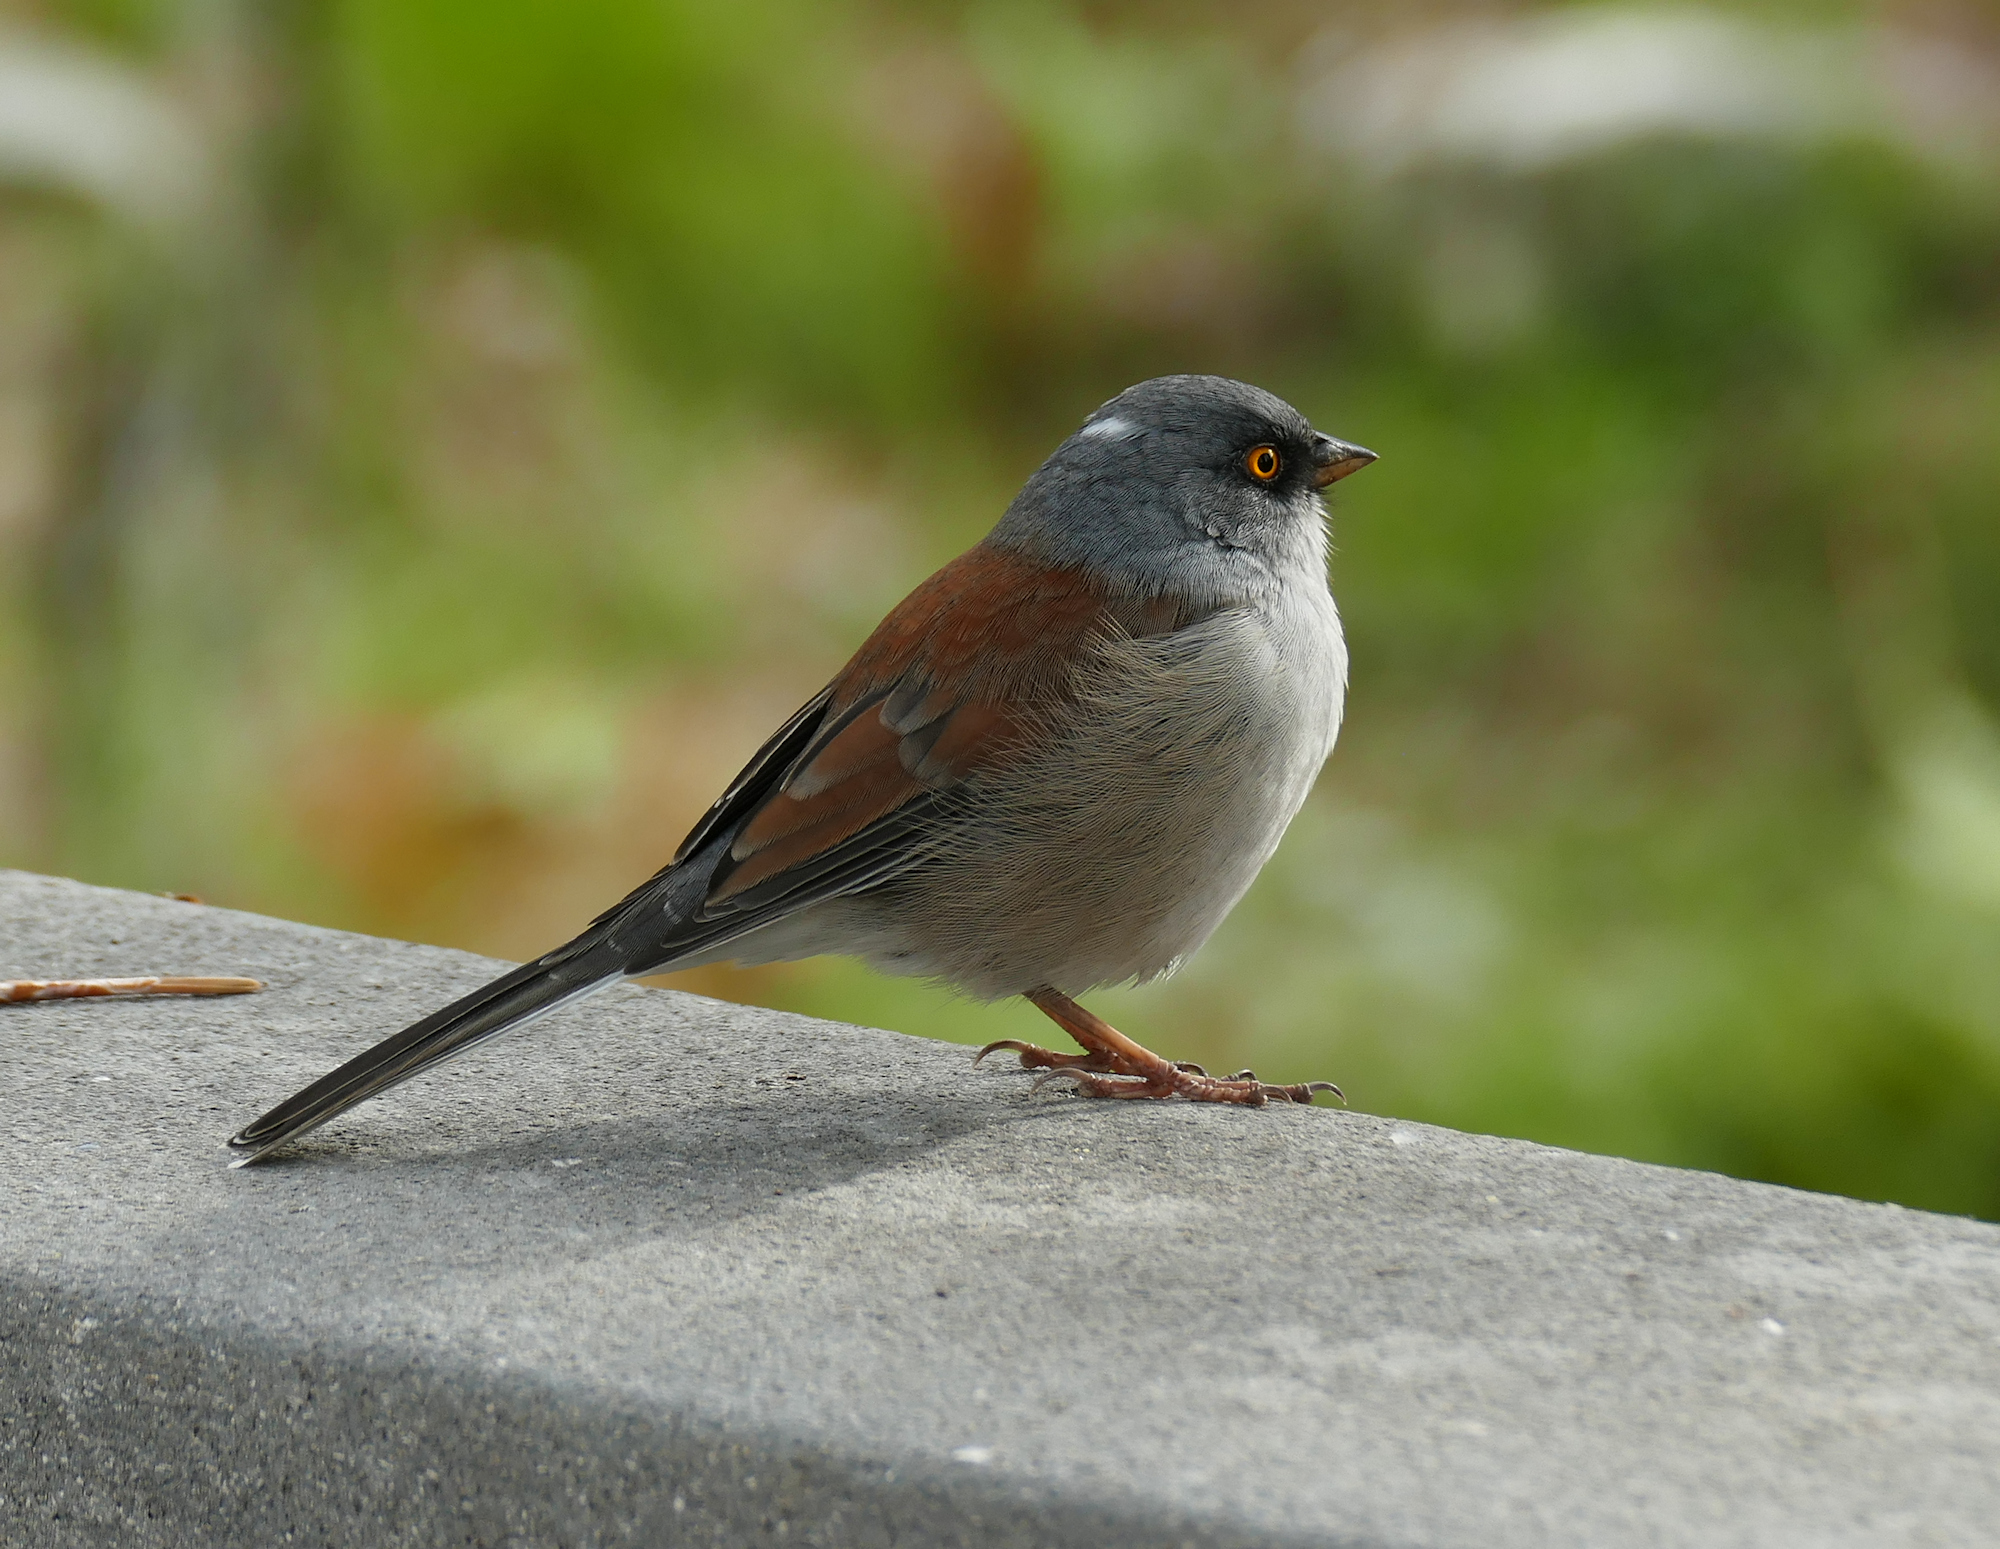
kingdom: Animalia
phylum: Chordata
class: Aves
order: Passeriformes
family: Passerellidae
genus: Junco
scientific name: Junco phaeonotus
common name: Yellow-eyed junco
